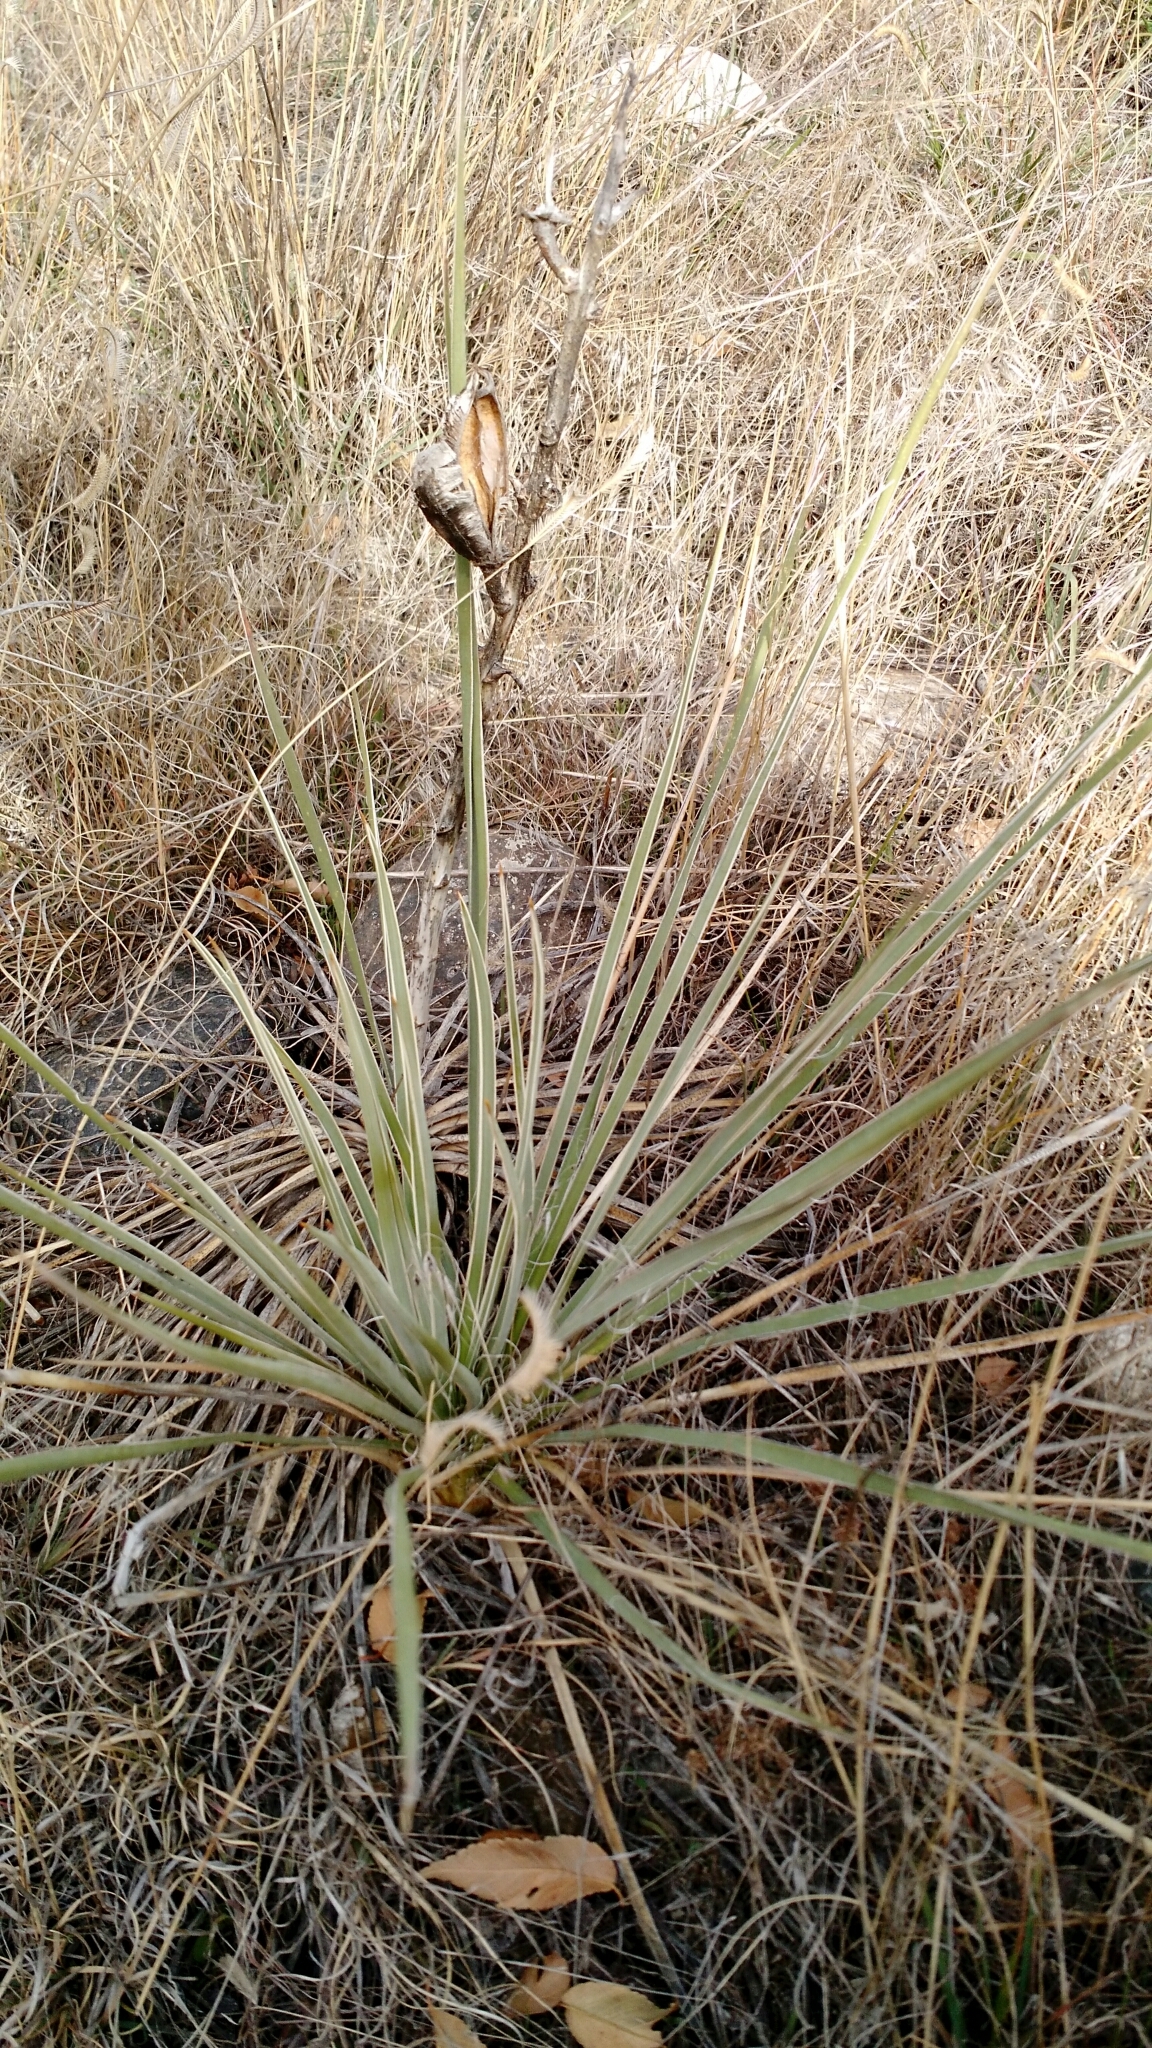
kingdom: Plantae
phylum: Tracheophyta
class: Liliopsida
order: Asparagales
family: Asparagaceae
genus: Yucca
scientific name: Yucca glauca
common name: Great plains yucca
